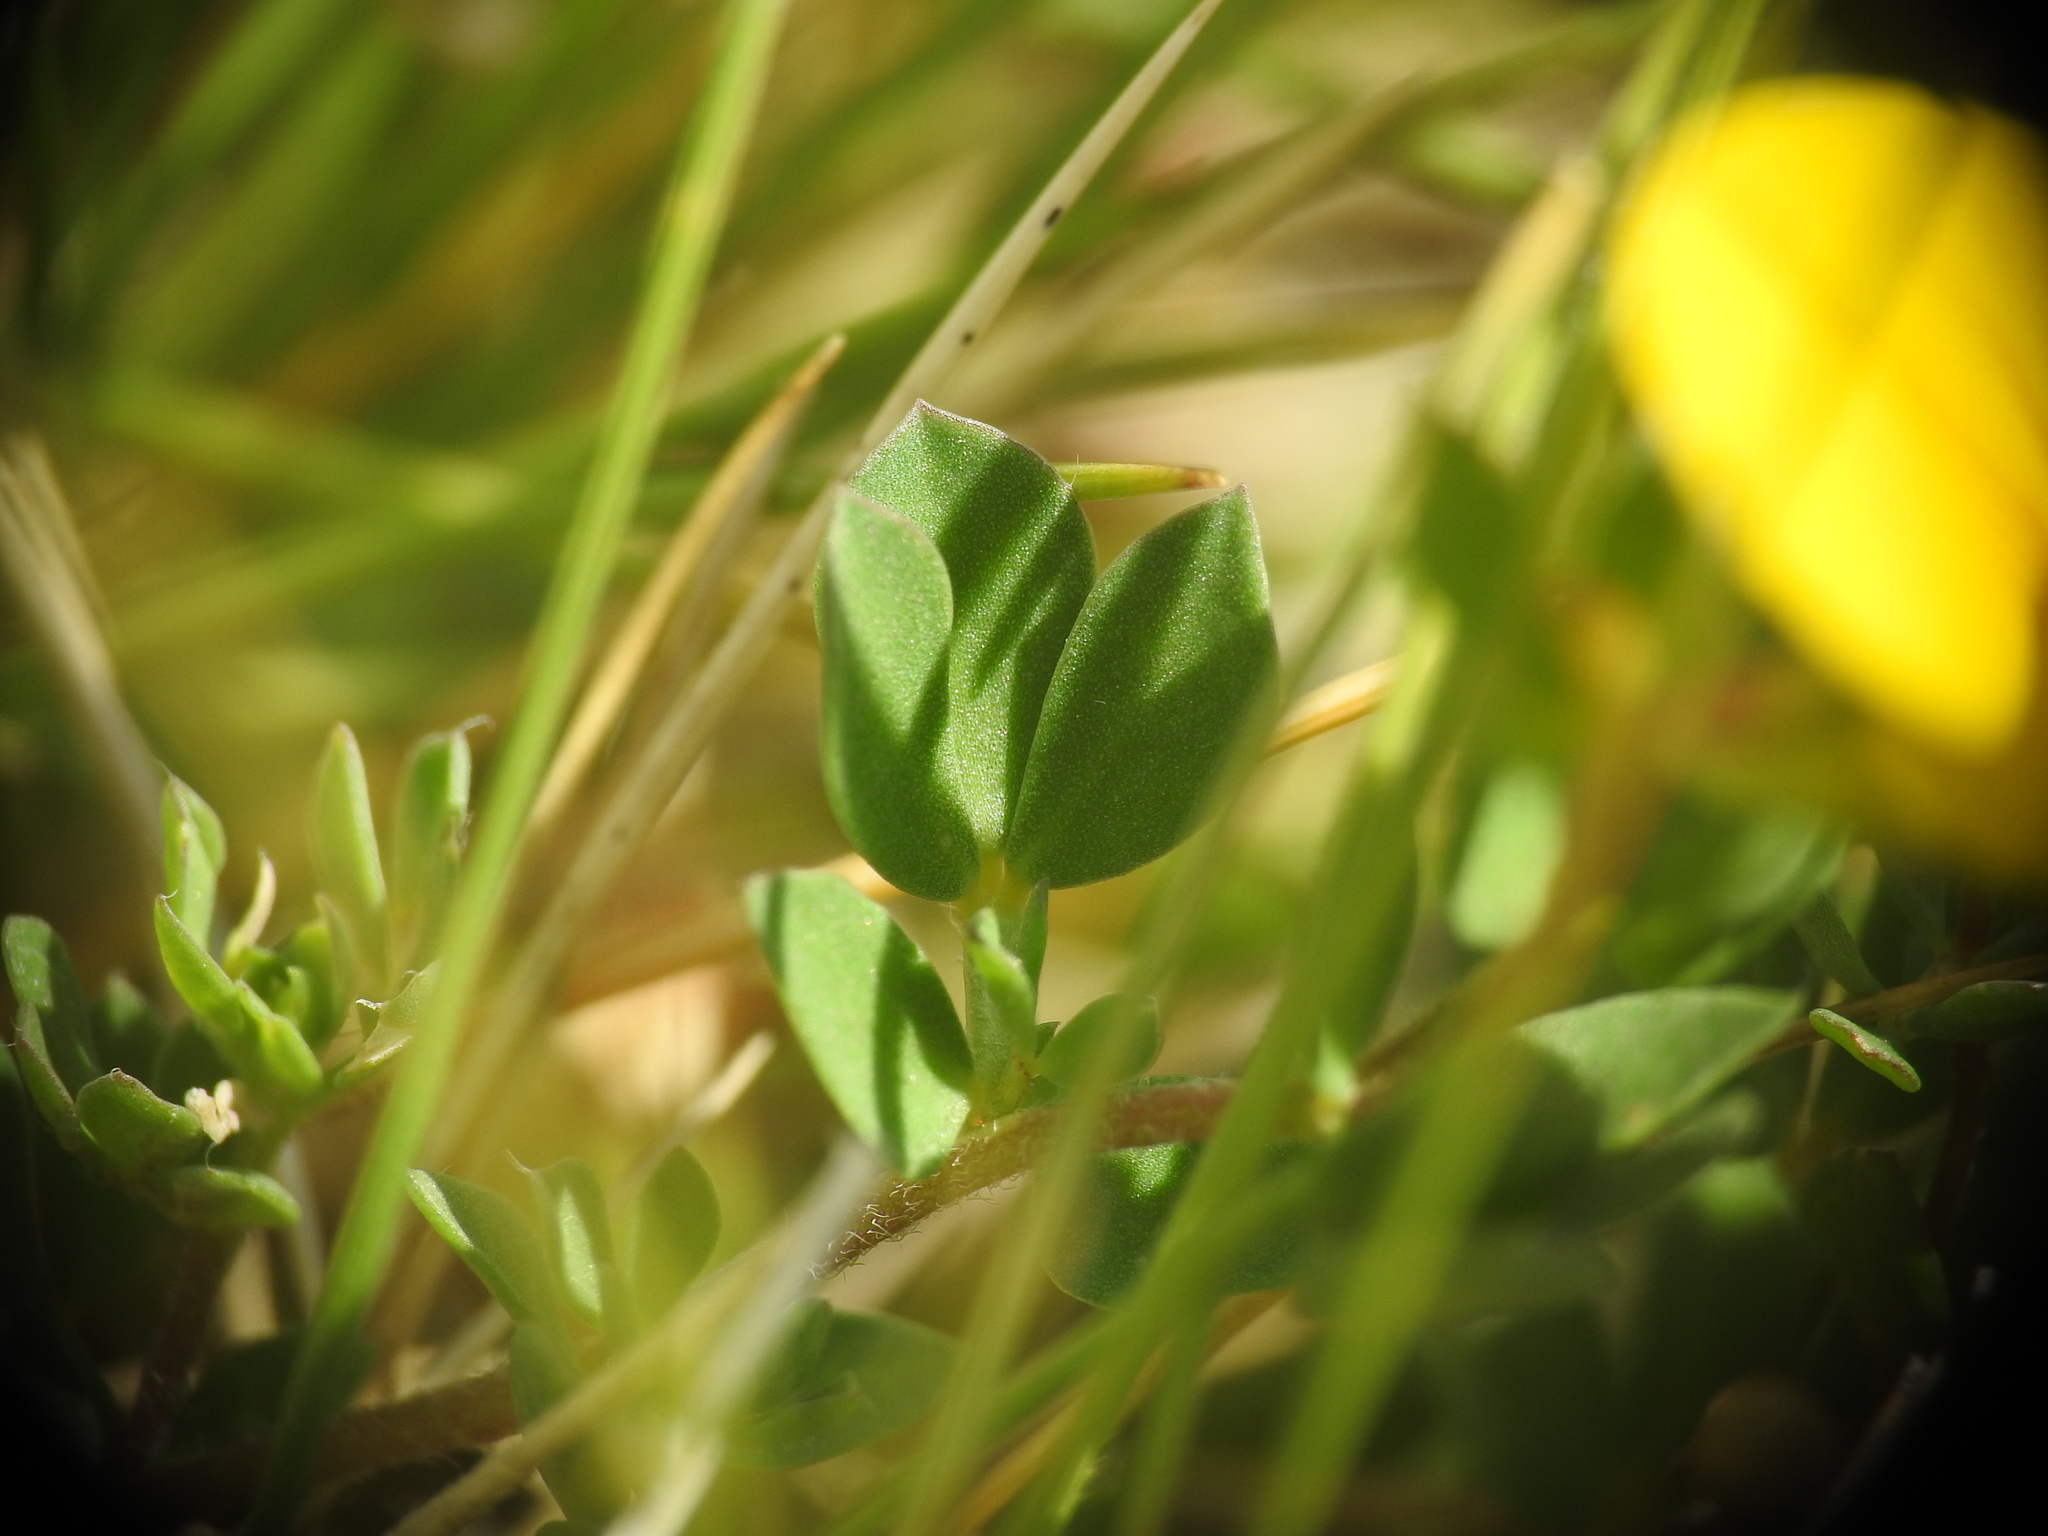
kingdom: Plantae
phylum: Tracheophyta
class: Magnoliopsida
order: Fabales
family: Fabaceae
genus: Lotus
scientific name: Lotus corniculatus
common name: Common bird's-foot-trefoil
